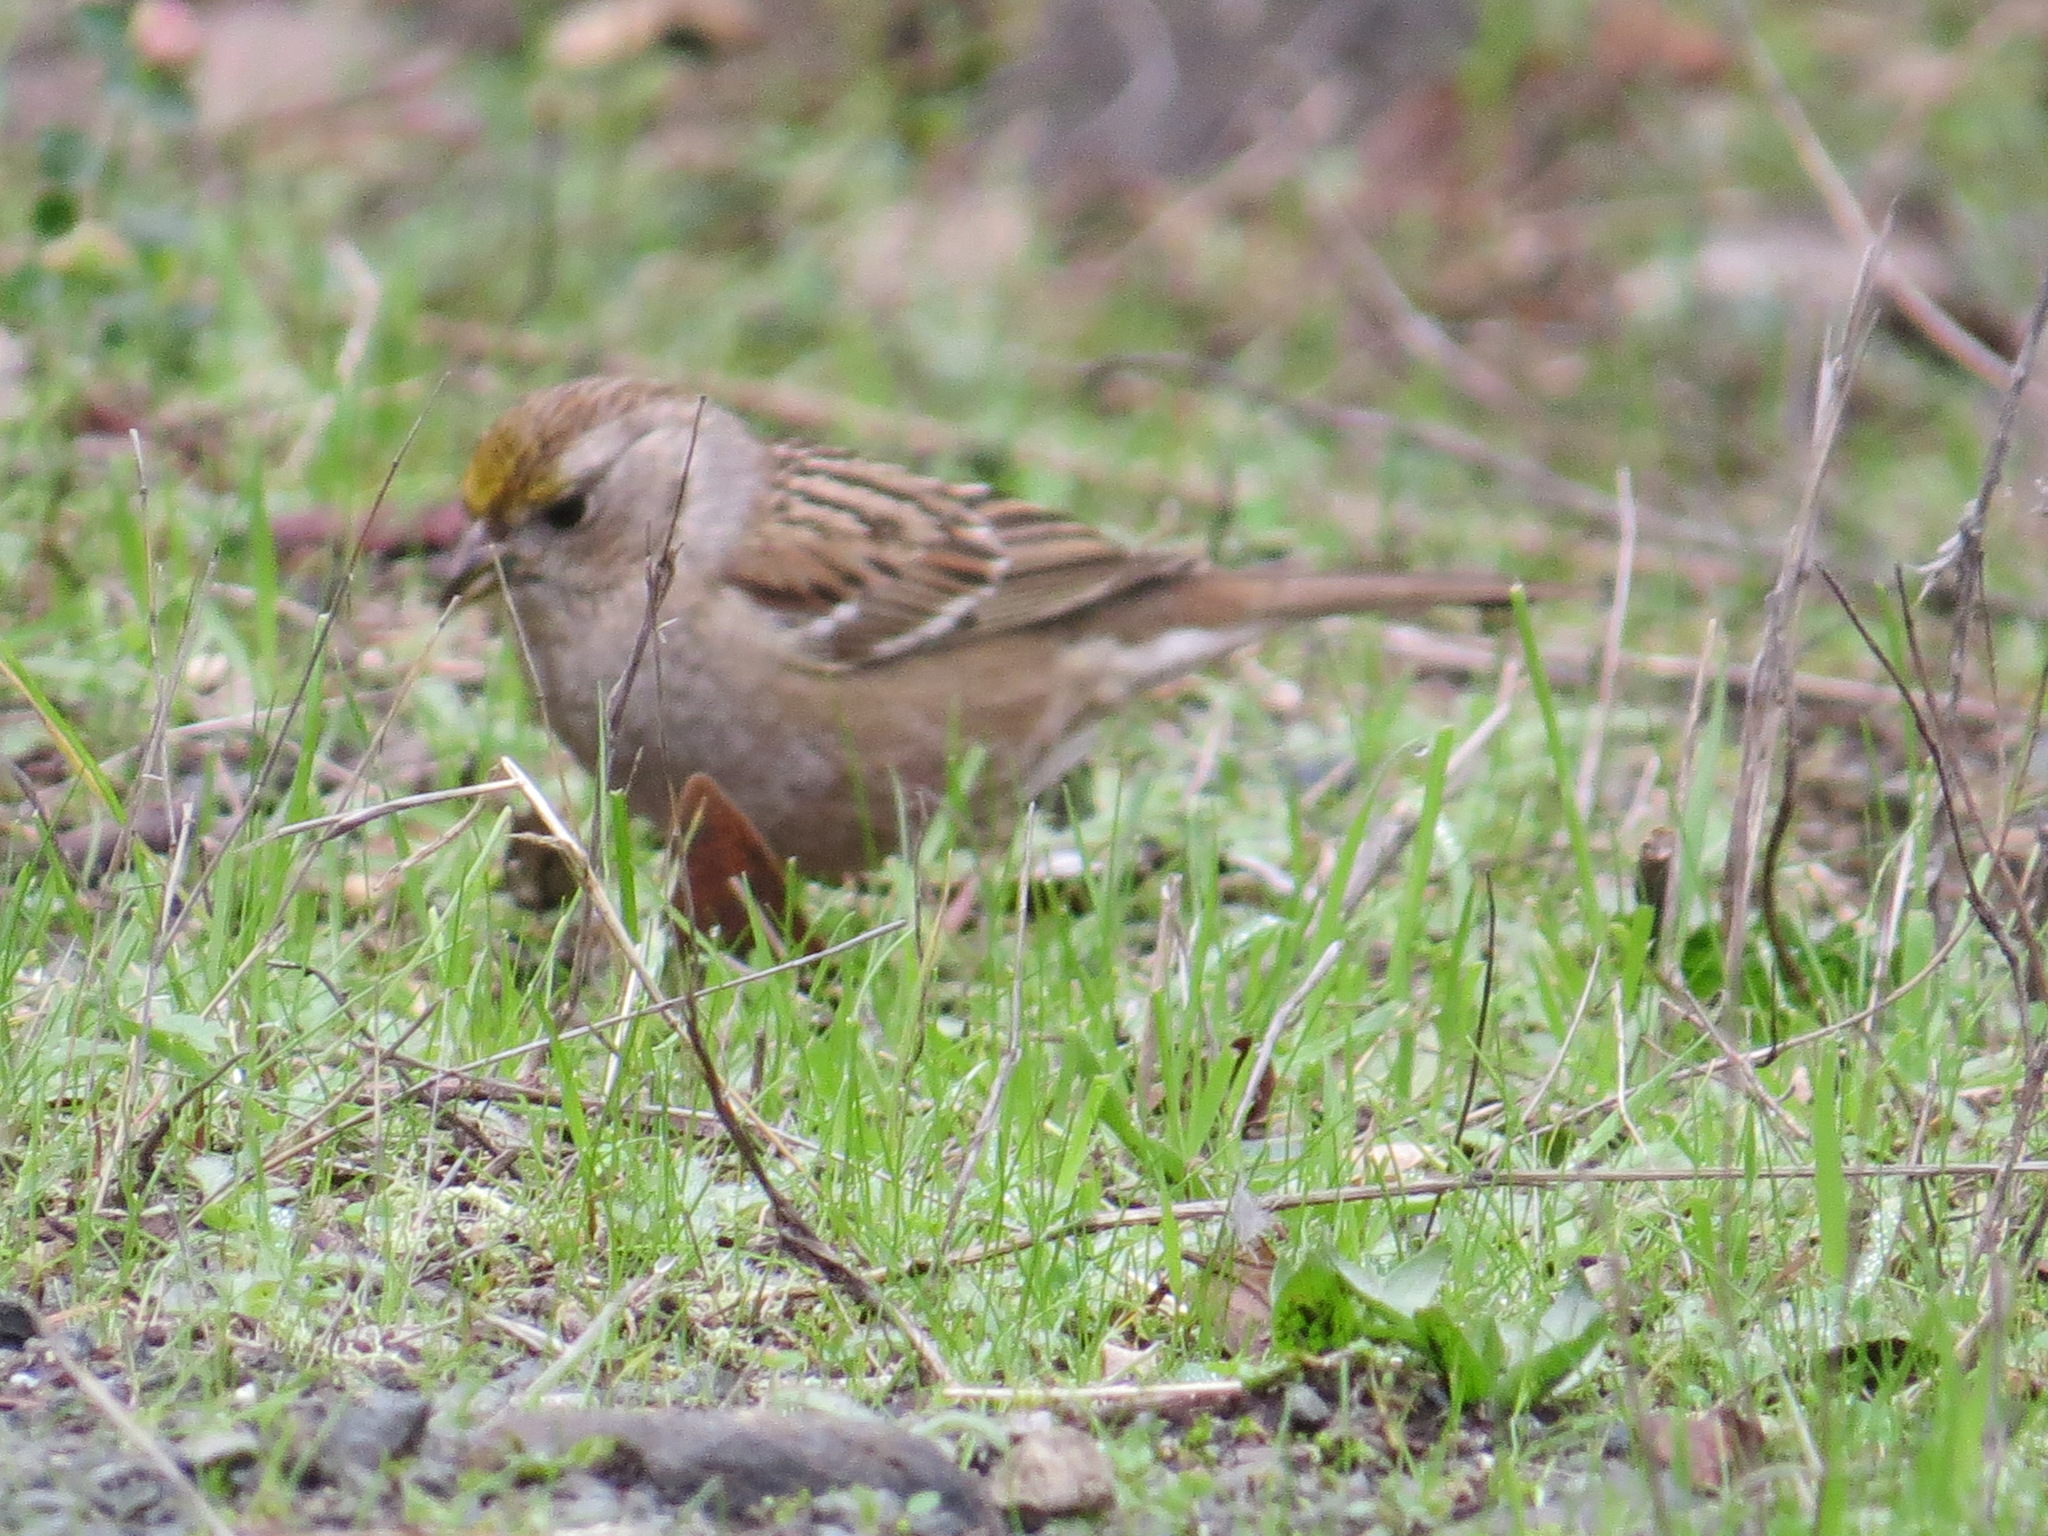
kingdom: Animalia
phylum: Chordata
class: Aves
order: Passeriformes
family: Passerellidae
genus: Zonotrichia
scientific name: Zonotrichia atricapilla
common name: Golden-crowned sparrow
